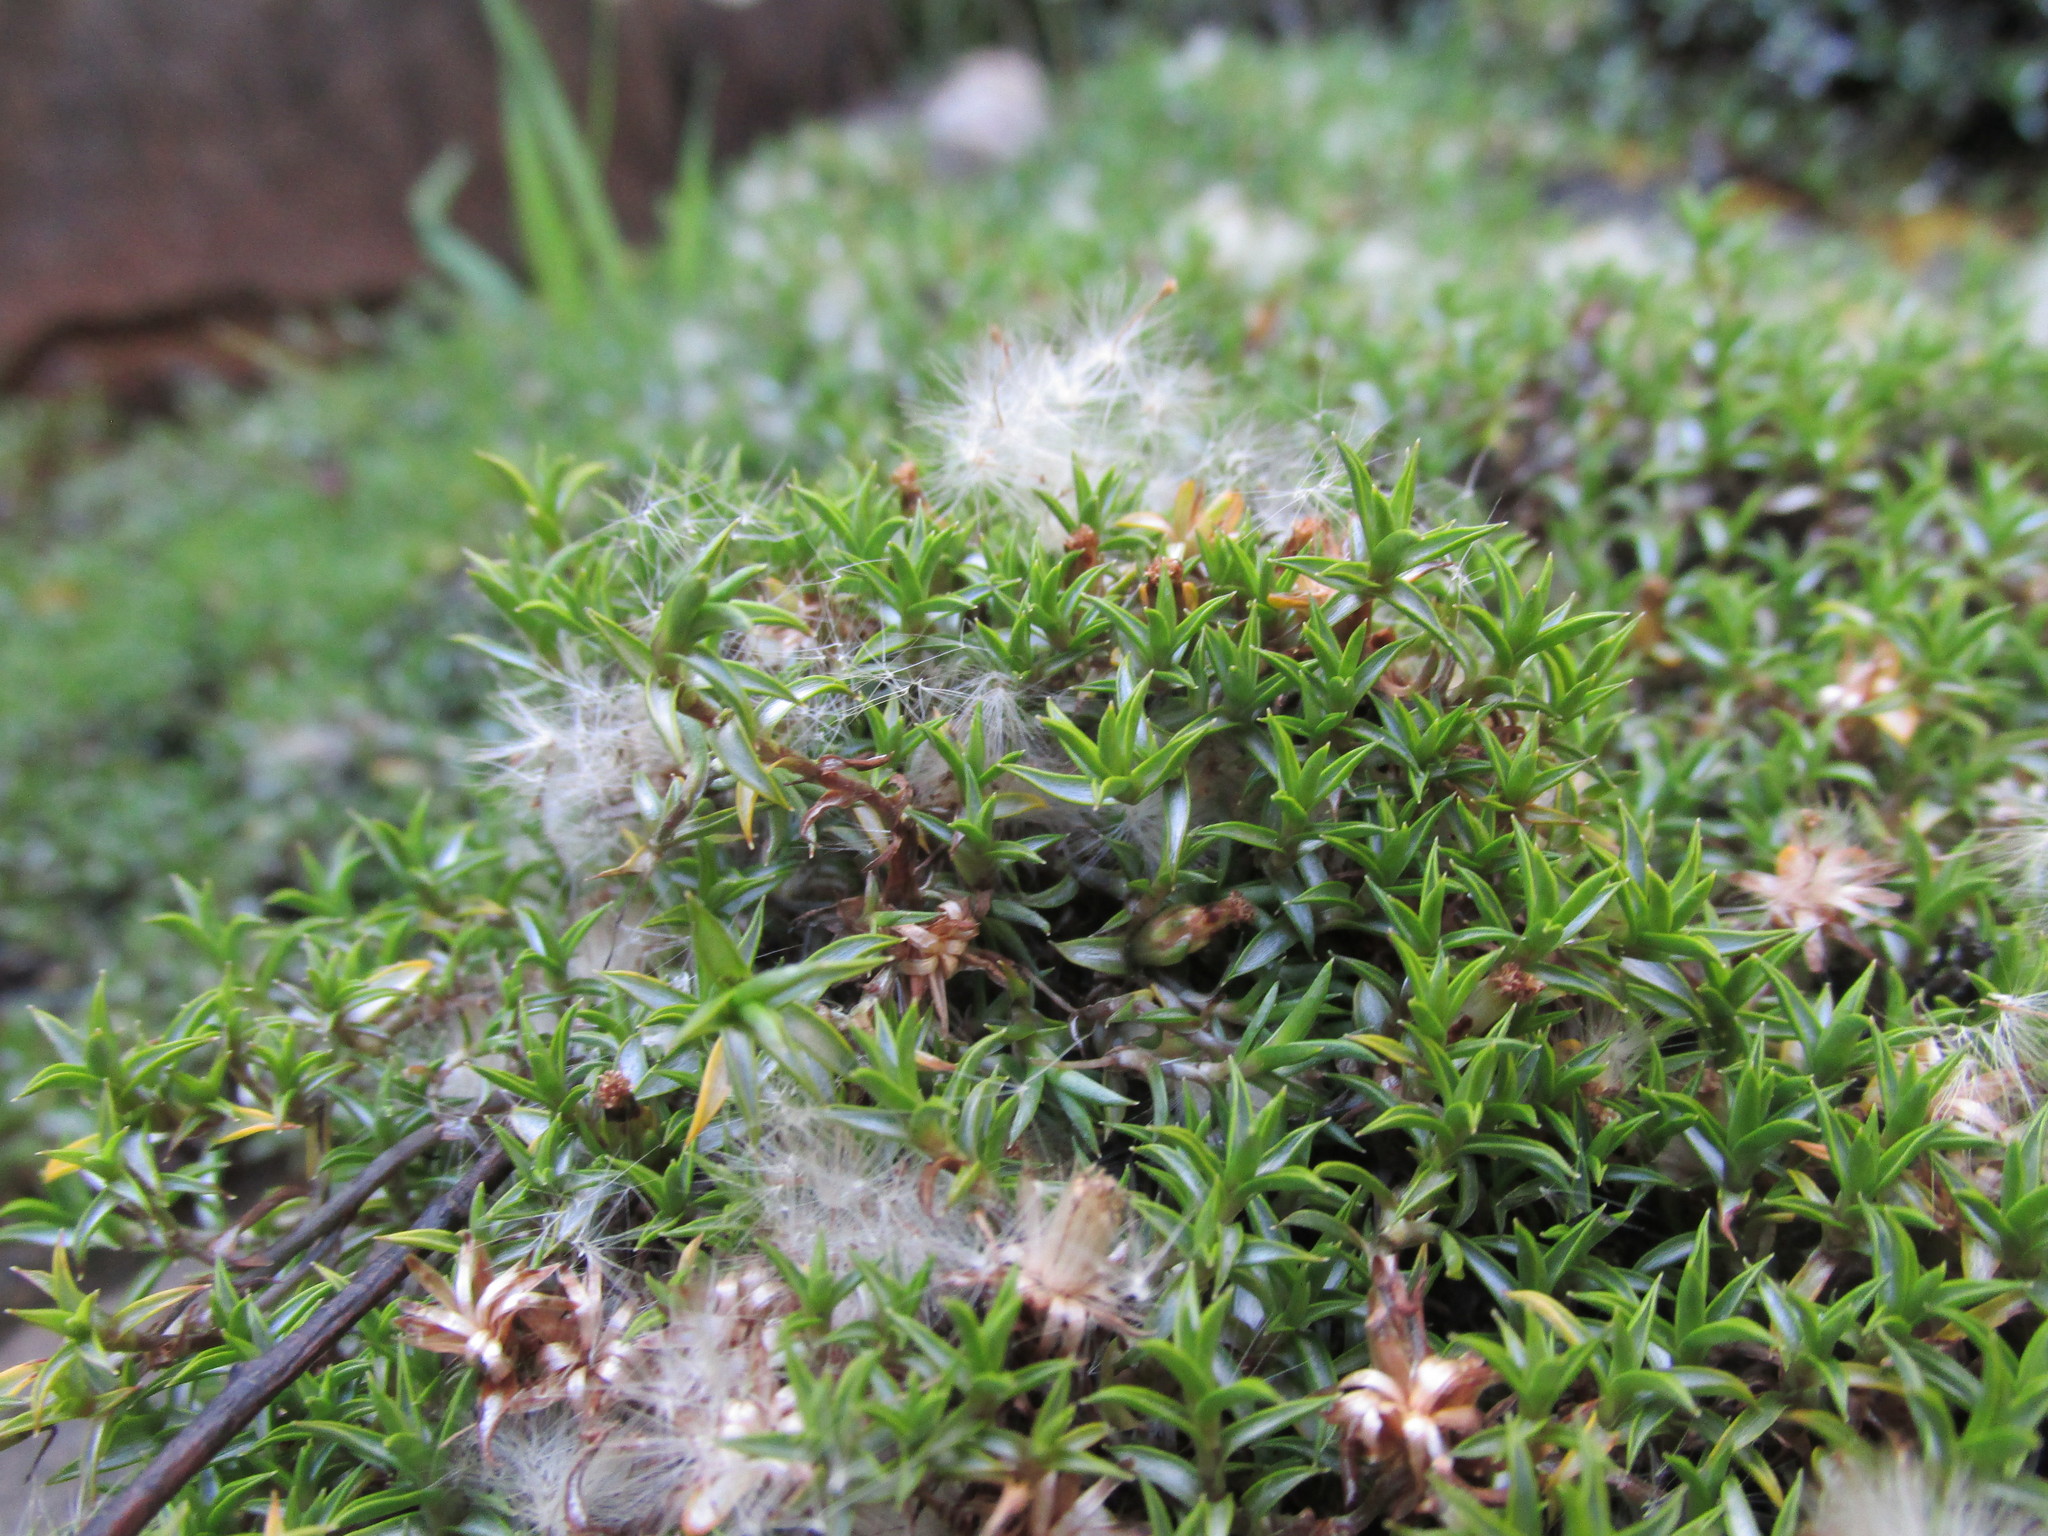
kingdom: Plantae
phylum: Tracheophyta
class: Magnoliopsida
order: Asterales
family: Asteraceae
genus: Raoulia
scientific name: Raoulia tenuicaulis
